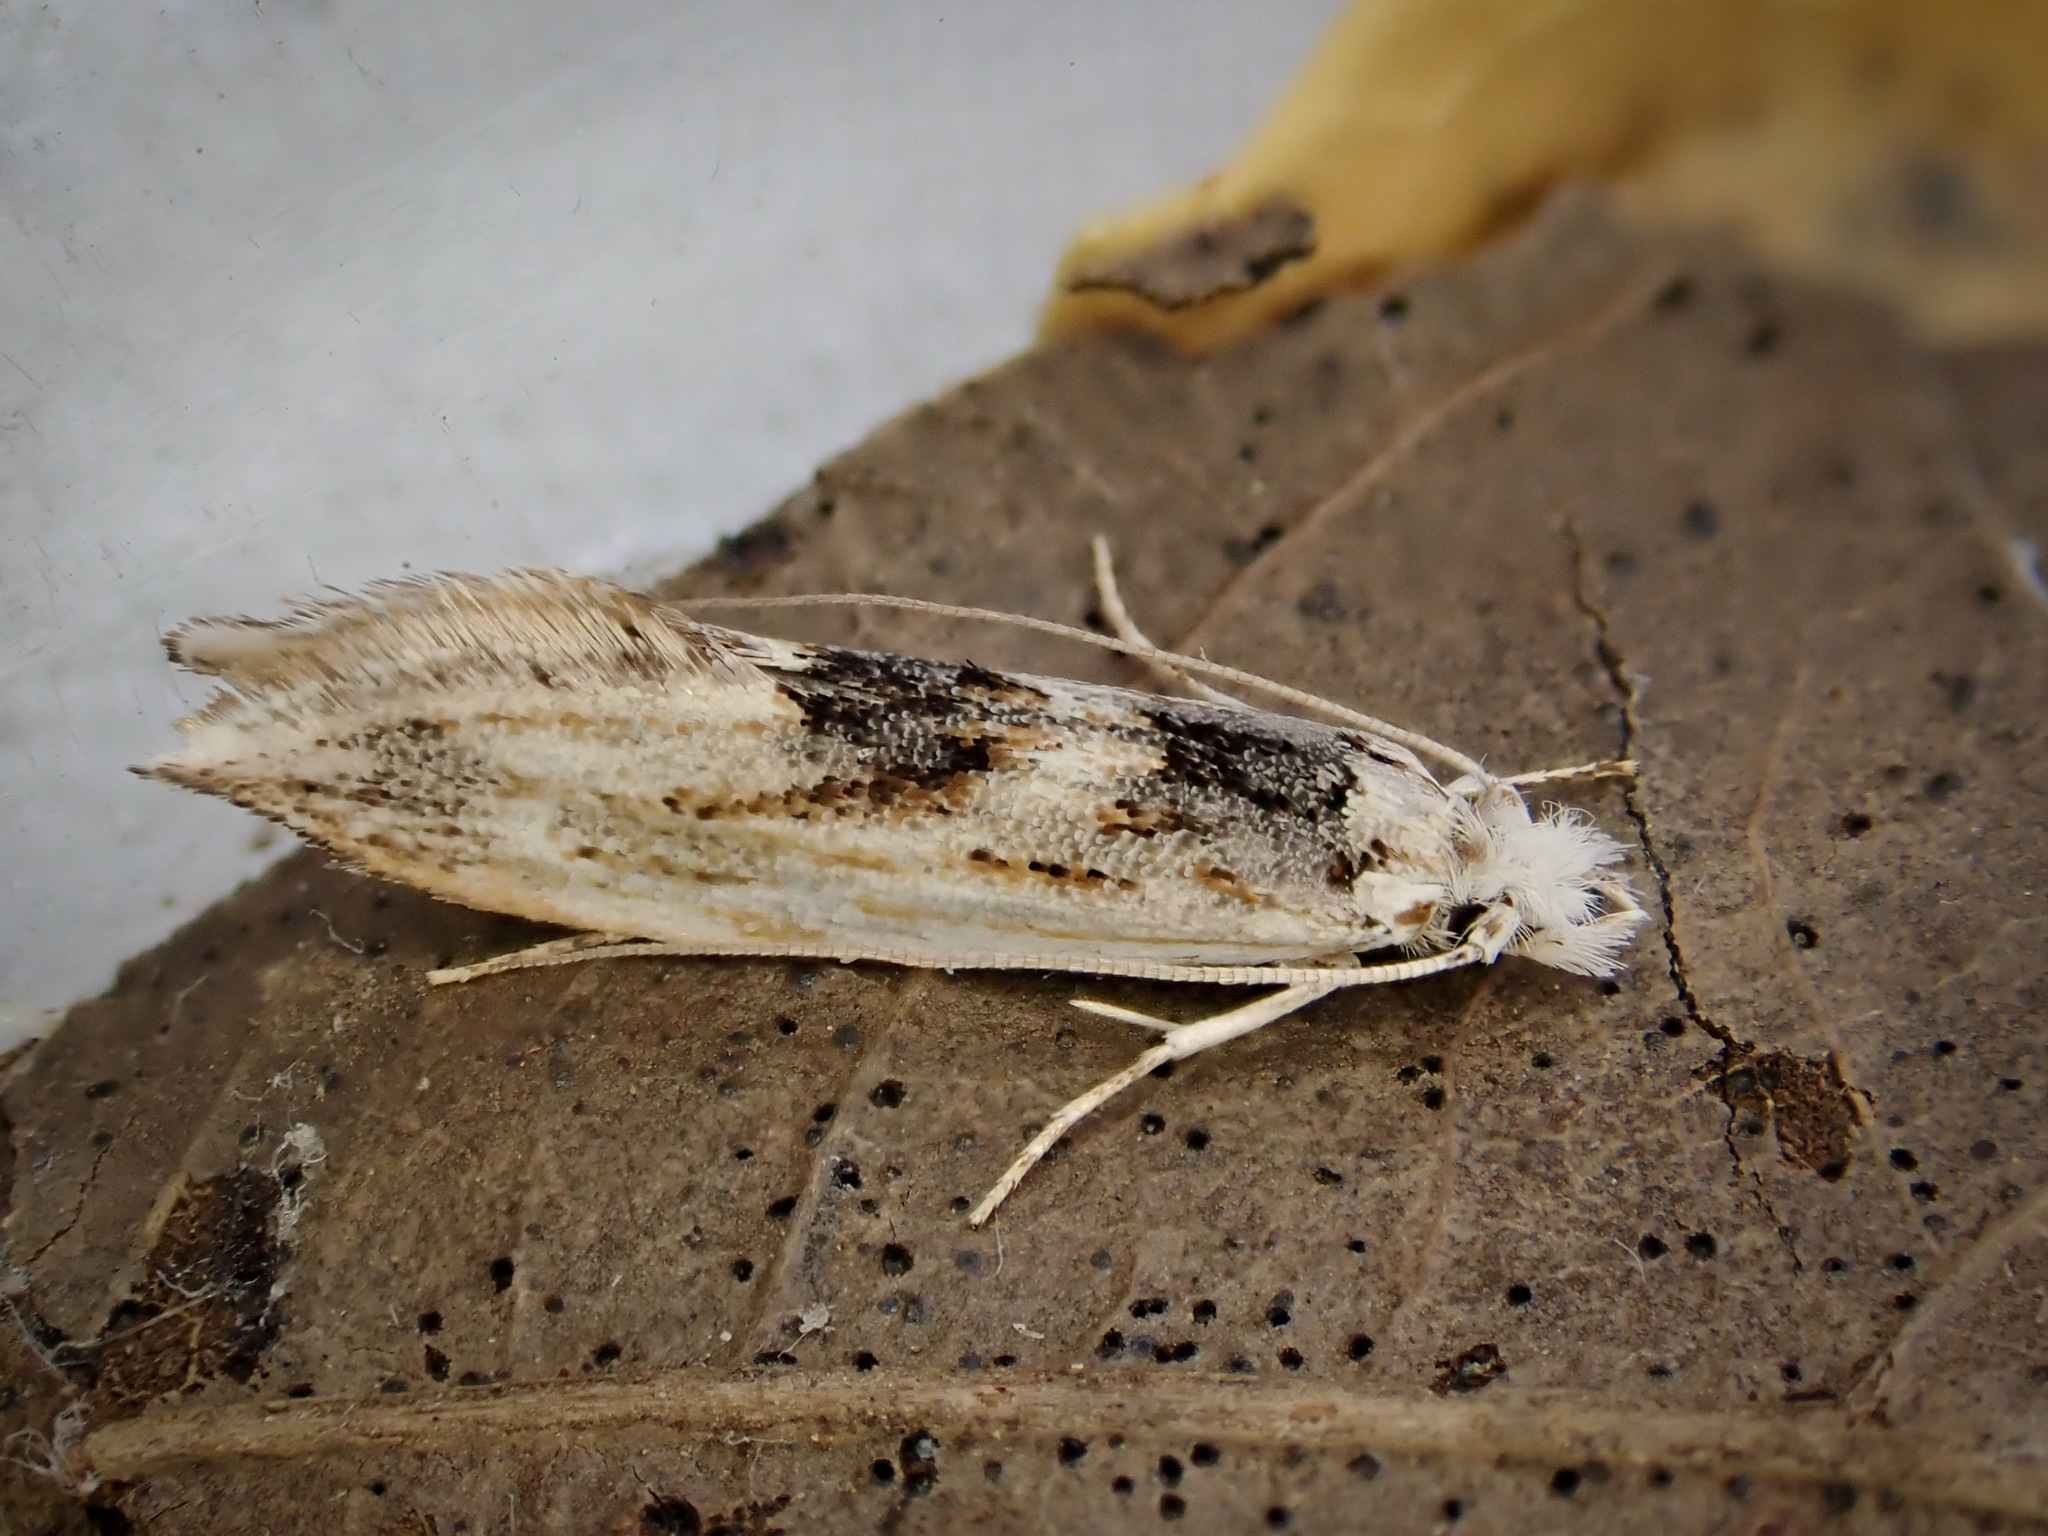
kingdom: Animalia
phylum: Arthropoda
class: Insecta
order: Lepidoptera
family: Tineidae
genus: Tephrosara
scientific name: Tephrosara cimmeria
